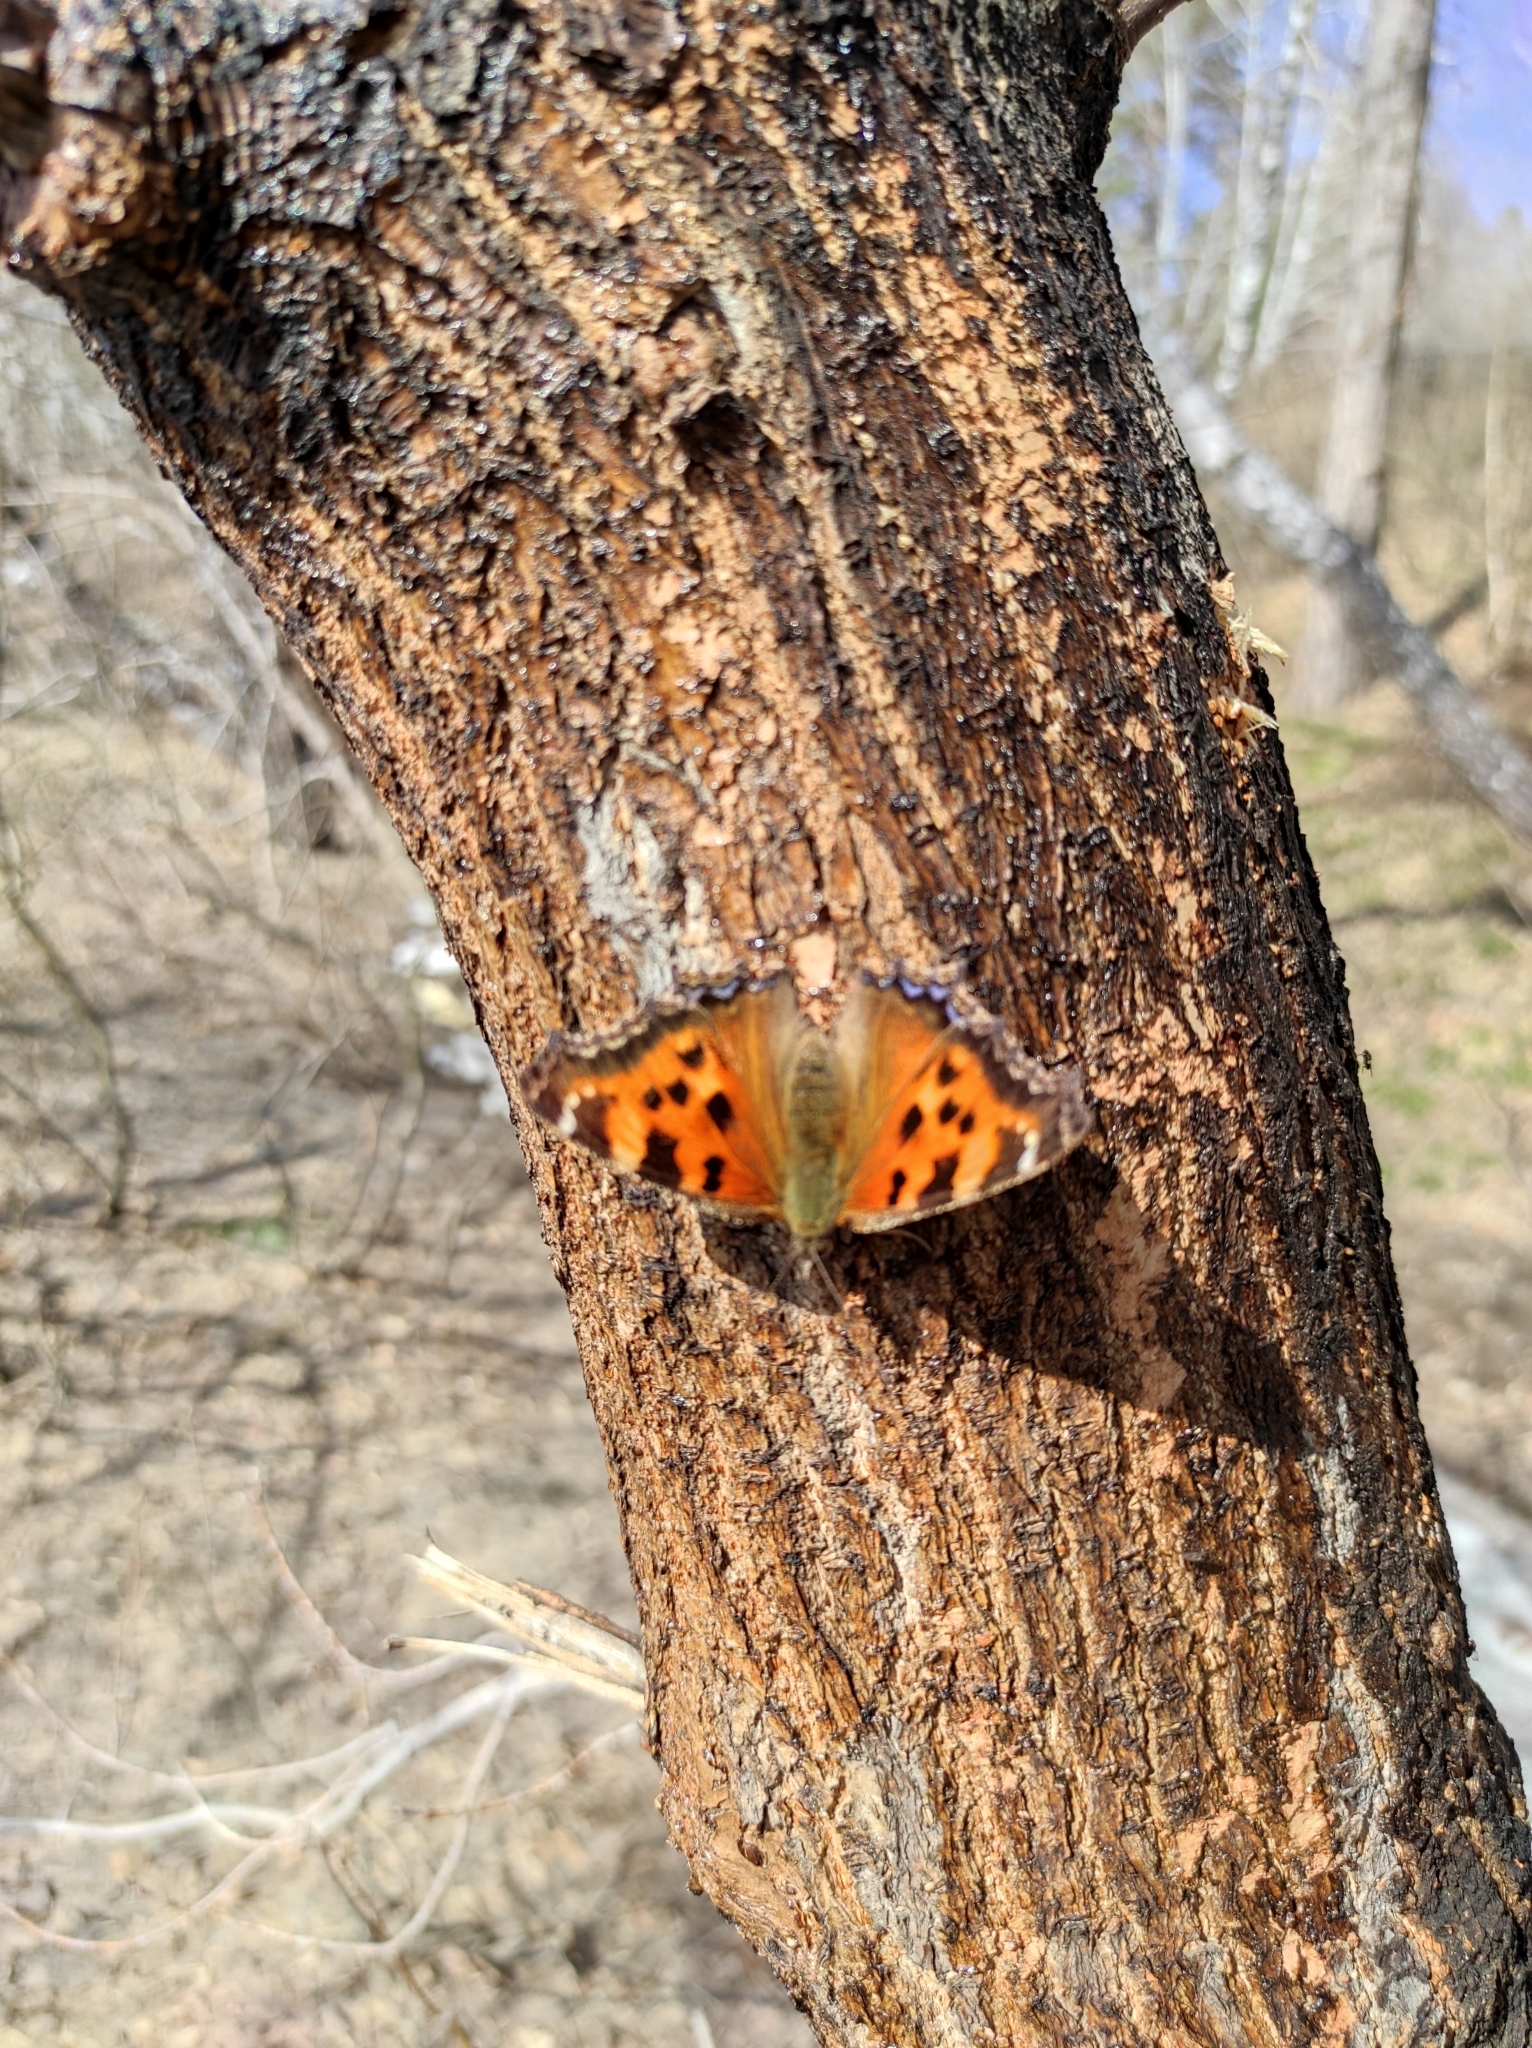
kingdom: Animalia
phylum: Arthropoda
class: Insecta
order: Lepidoptera
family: Nymphalidae
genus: Nymphalis
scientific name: Nymphalis xanthomelas
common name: Scarce tortoiseshell
